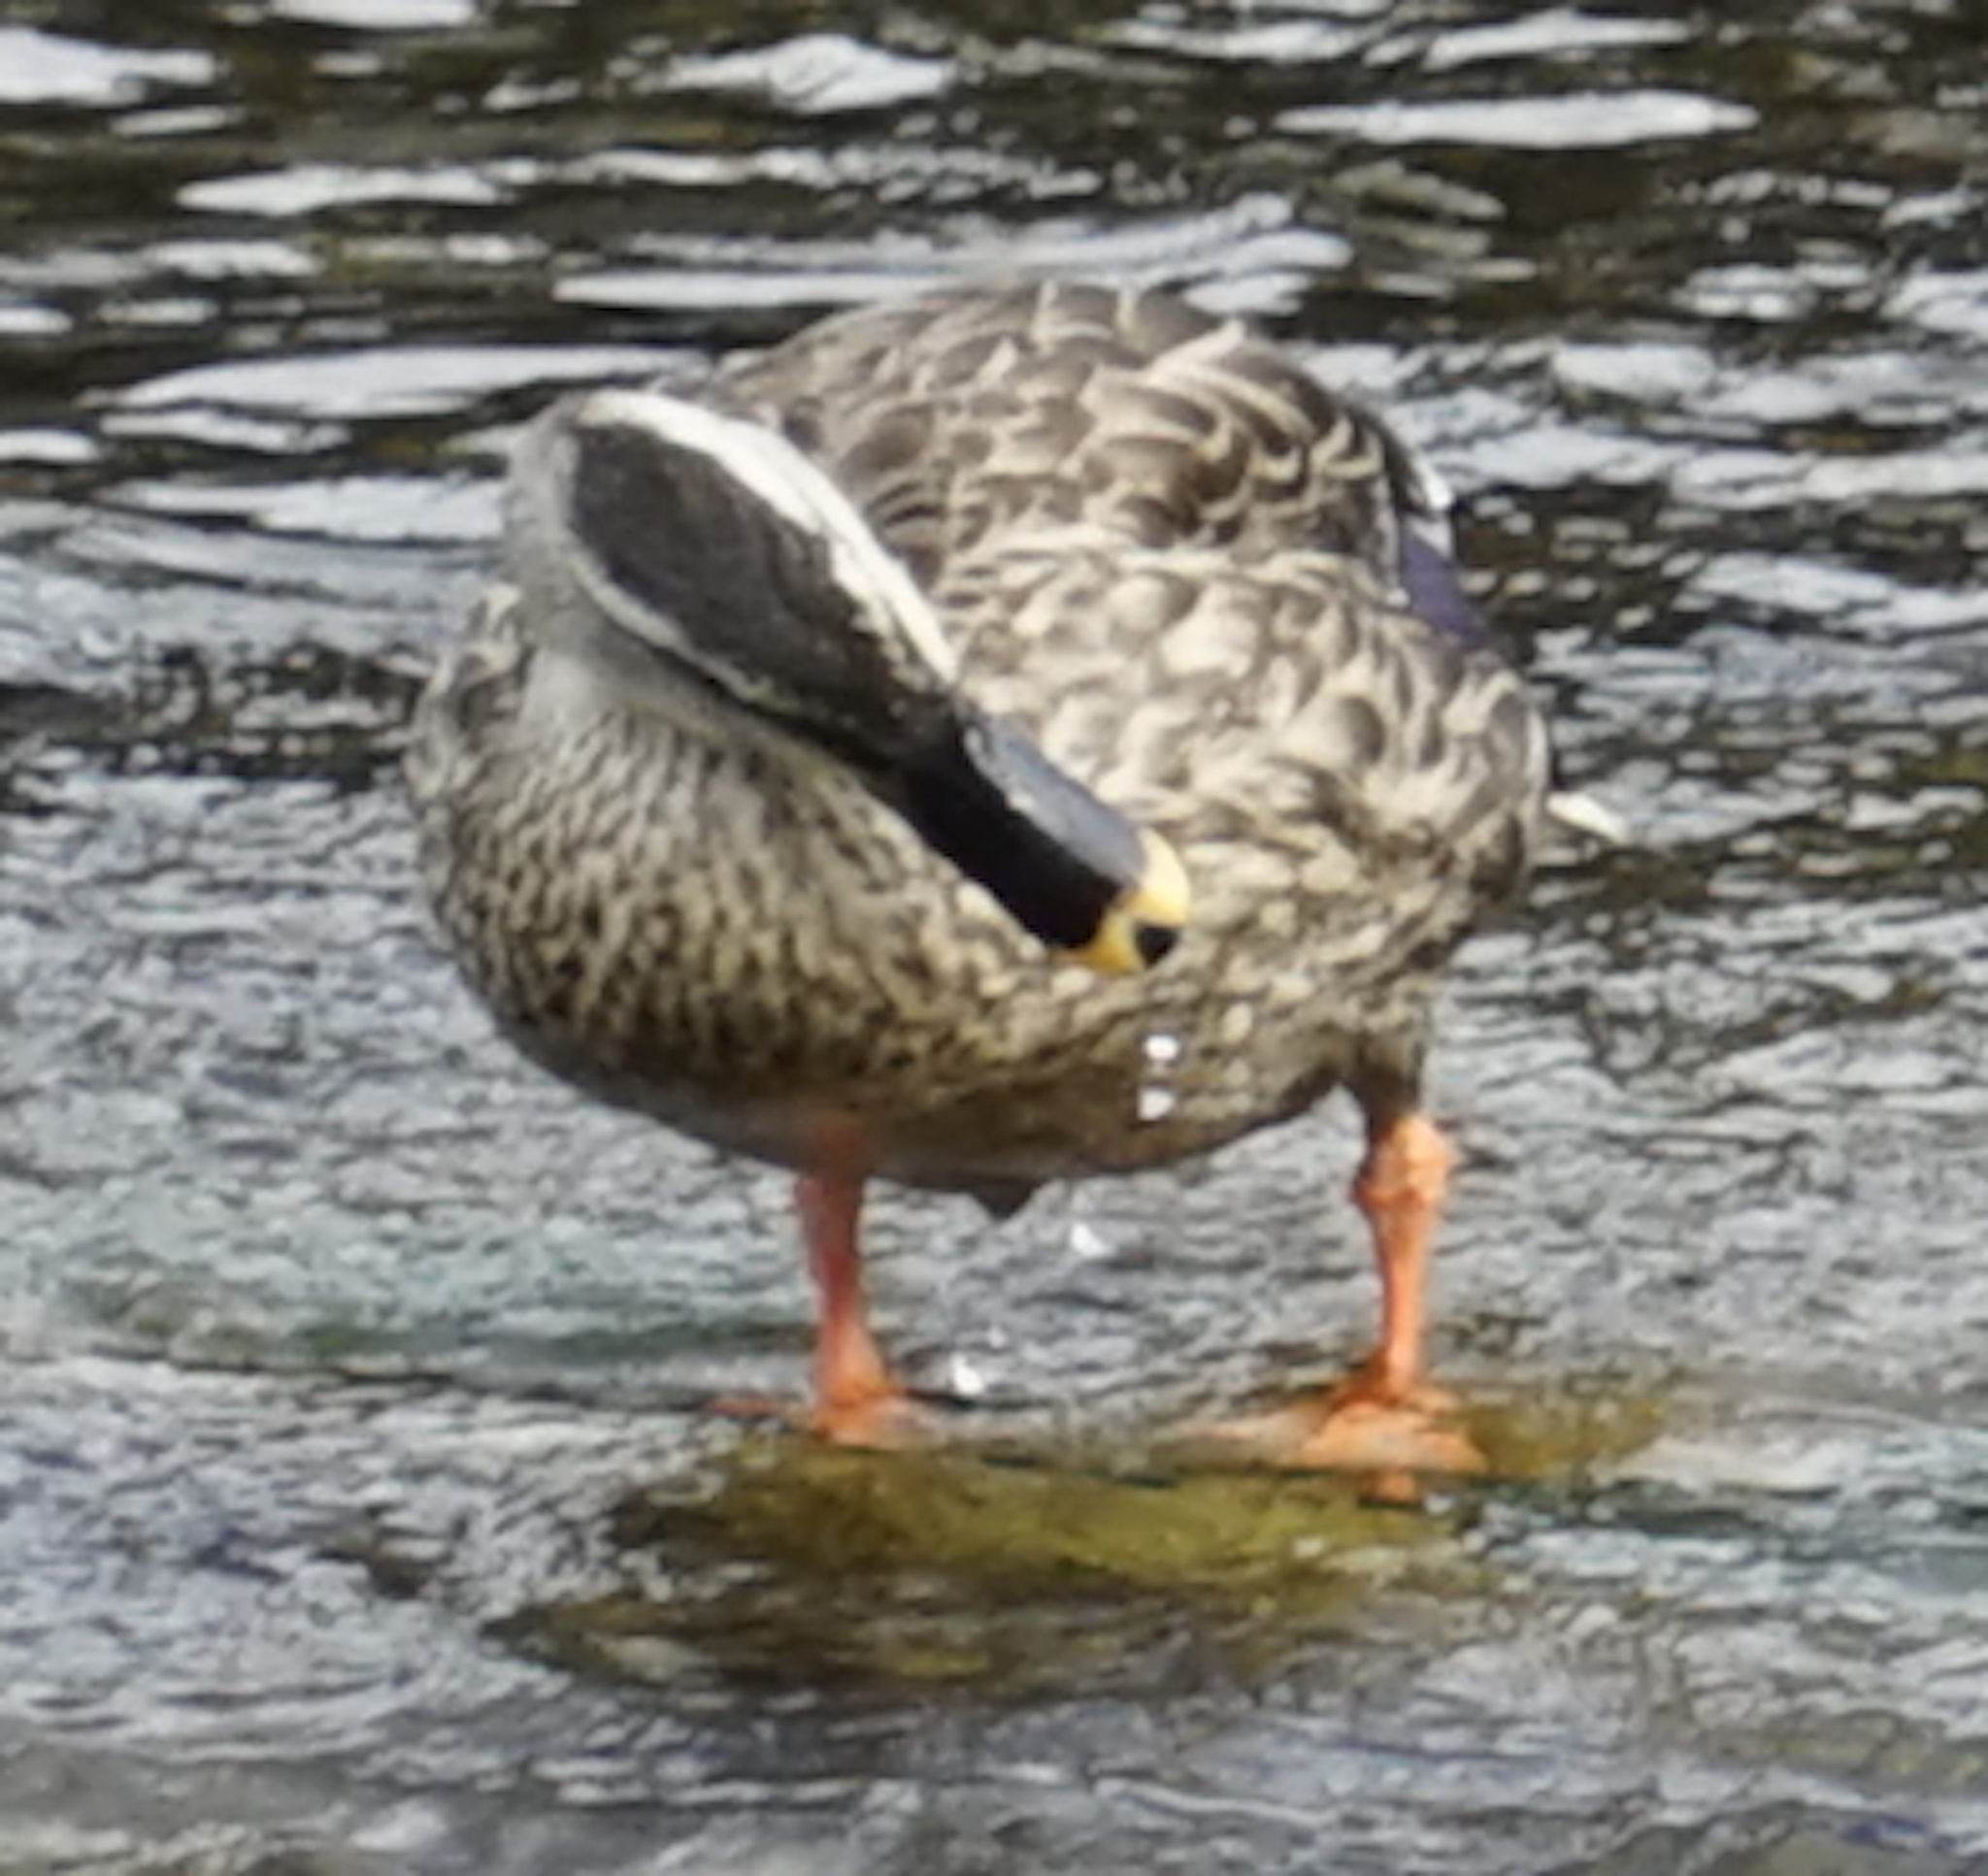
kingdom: Animalia
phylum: Chordata
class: Aves
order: Anseriformes
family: Anatidae
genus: Anas
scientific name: Anas zonorhyncha
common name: Eastern spot-billed duck
